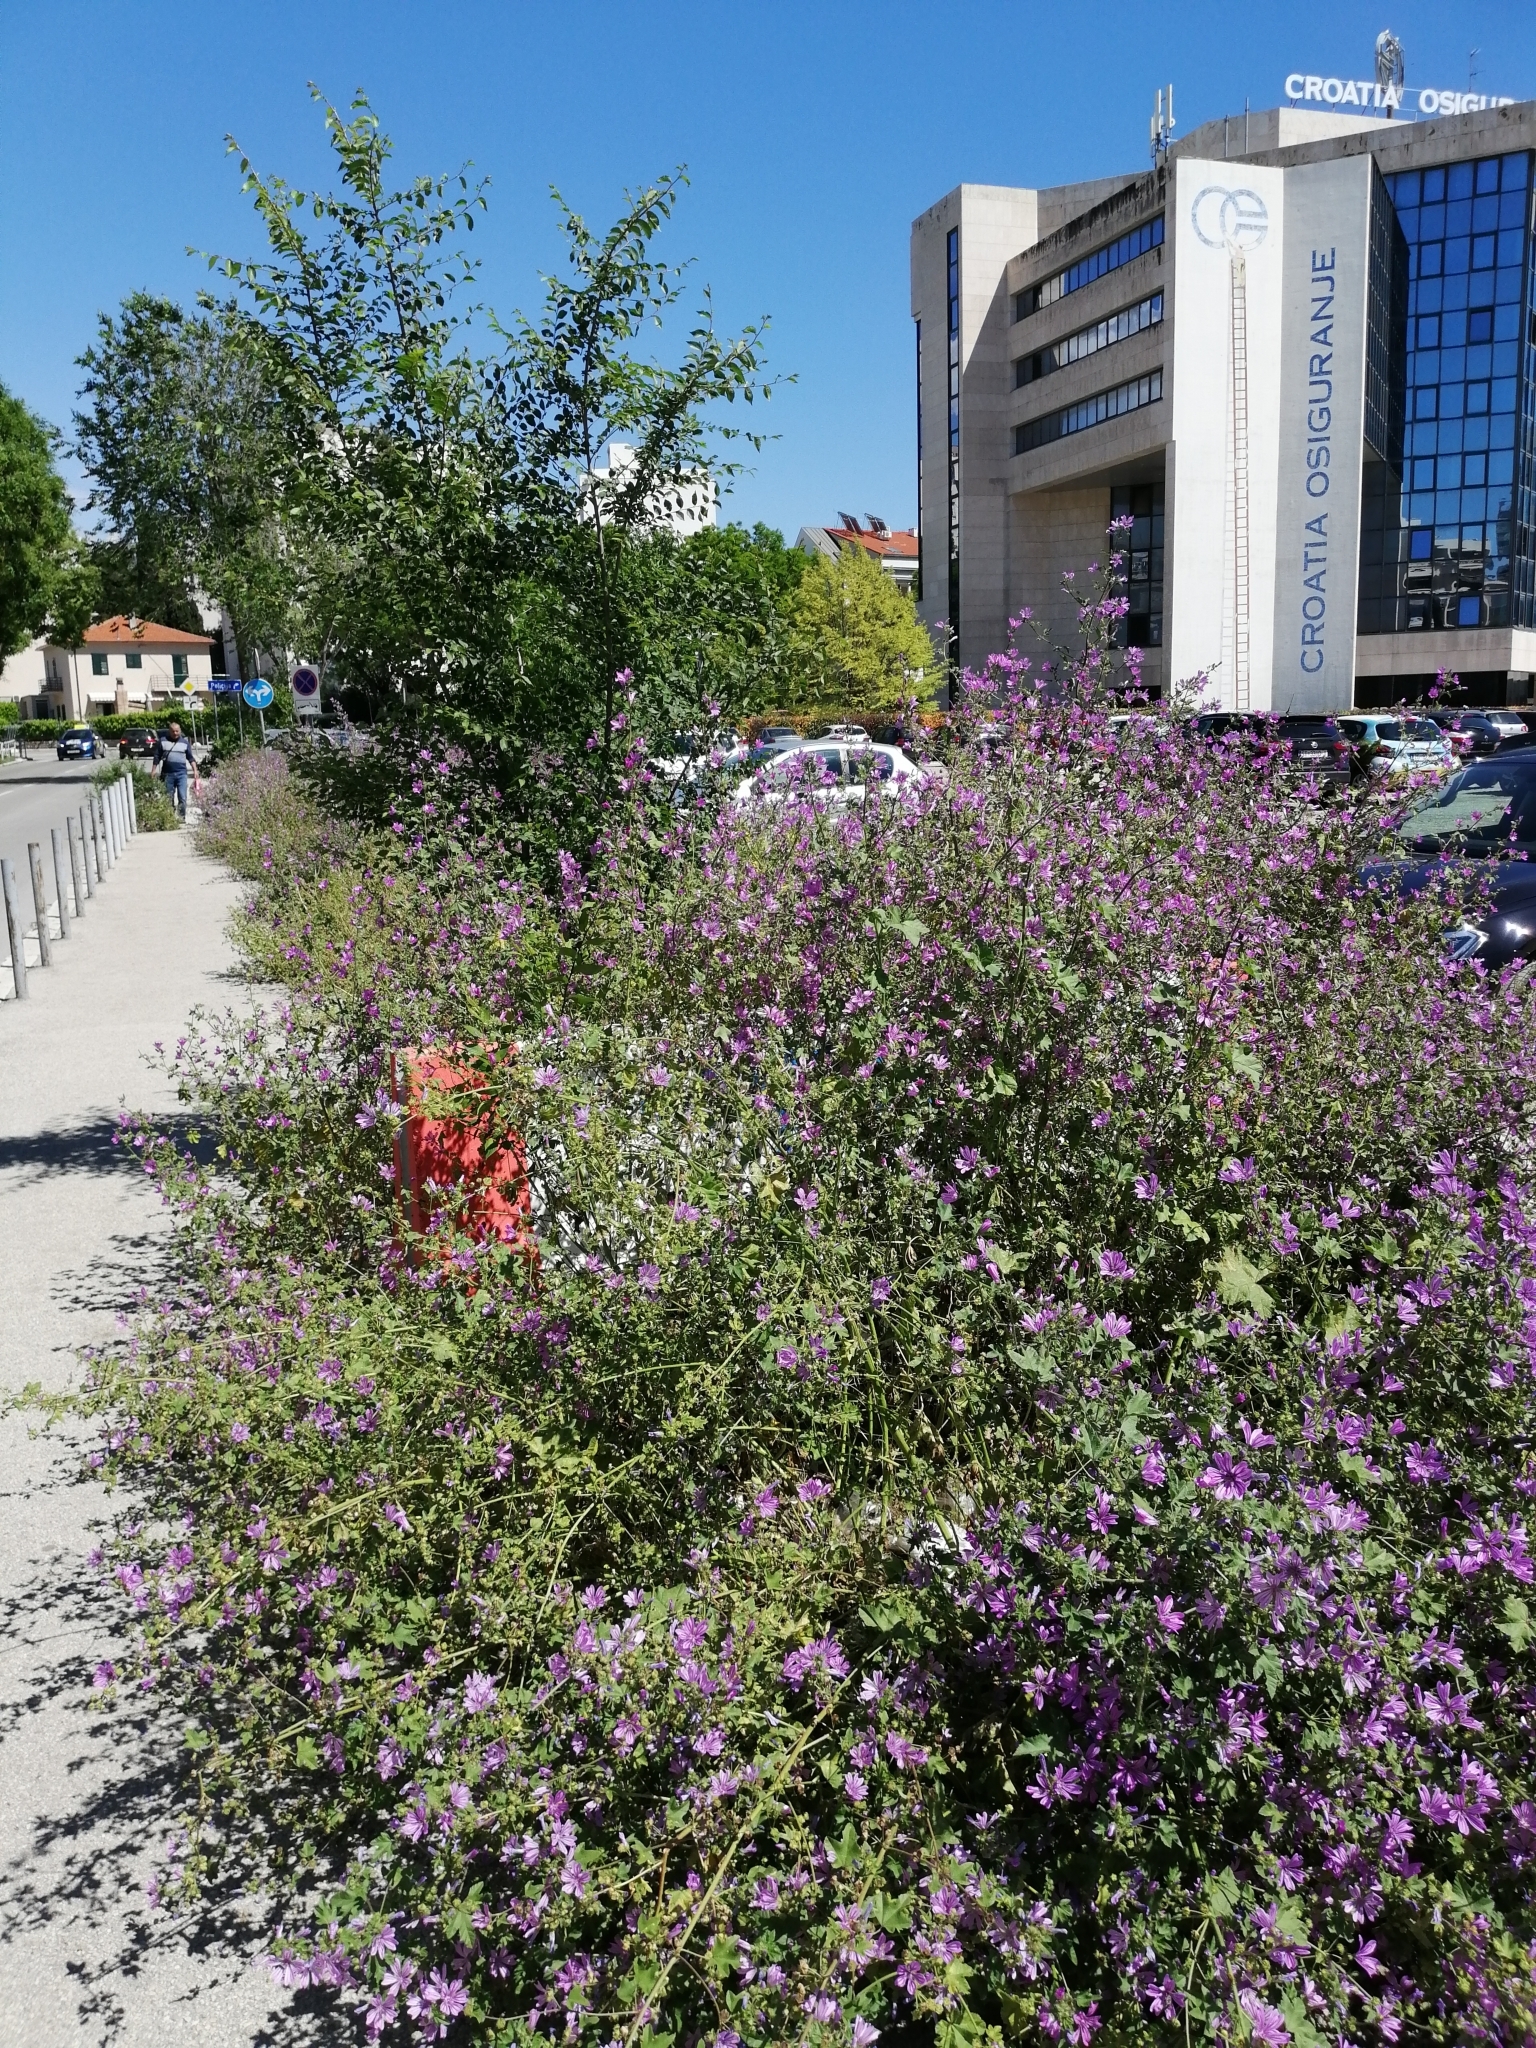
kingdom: Plantae
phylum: Tracheophyta
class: Magnoliopsida
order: Malvales
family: Malvaceae
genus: Malva
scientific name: Malva sylvestris
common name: Common mallow
